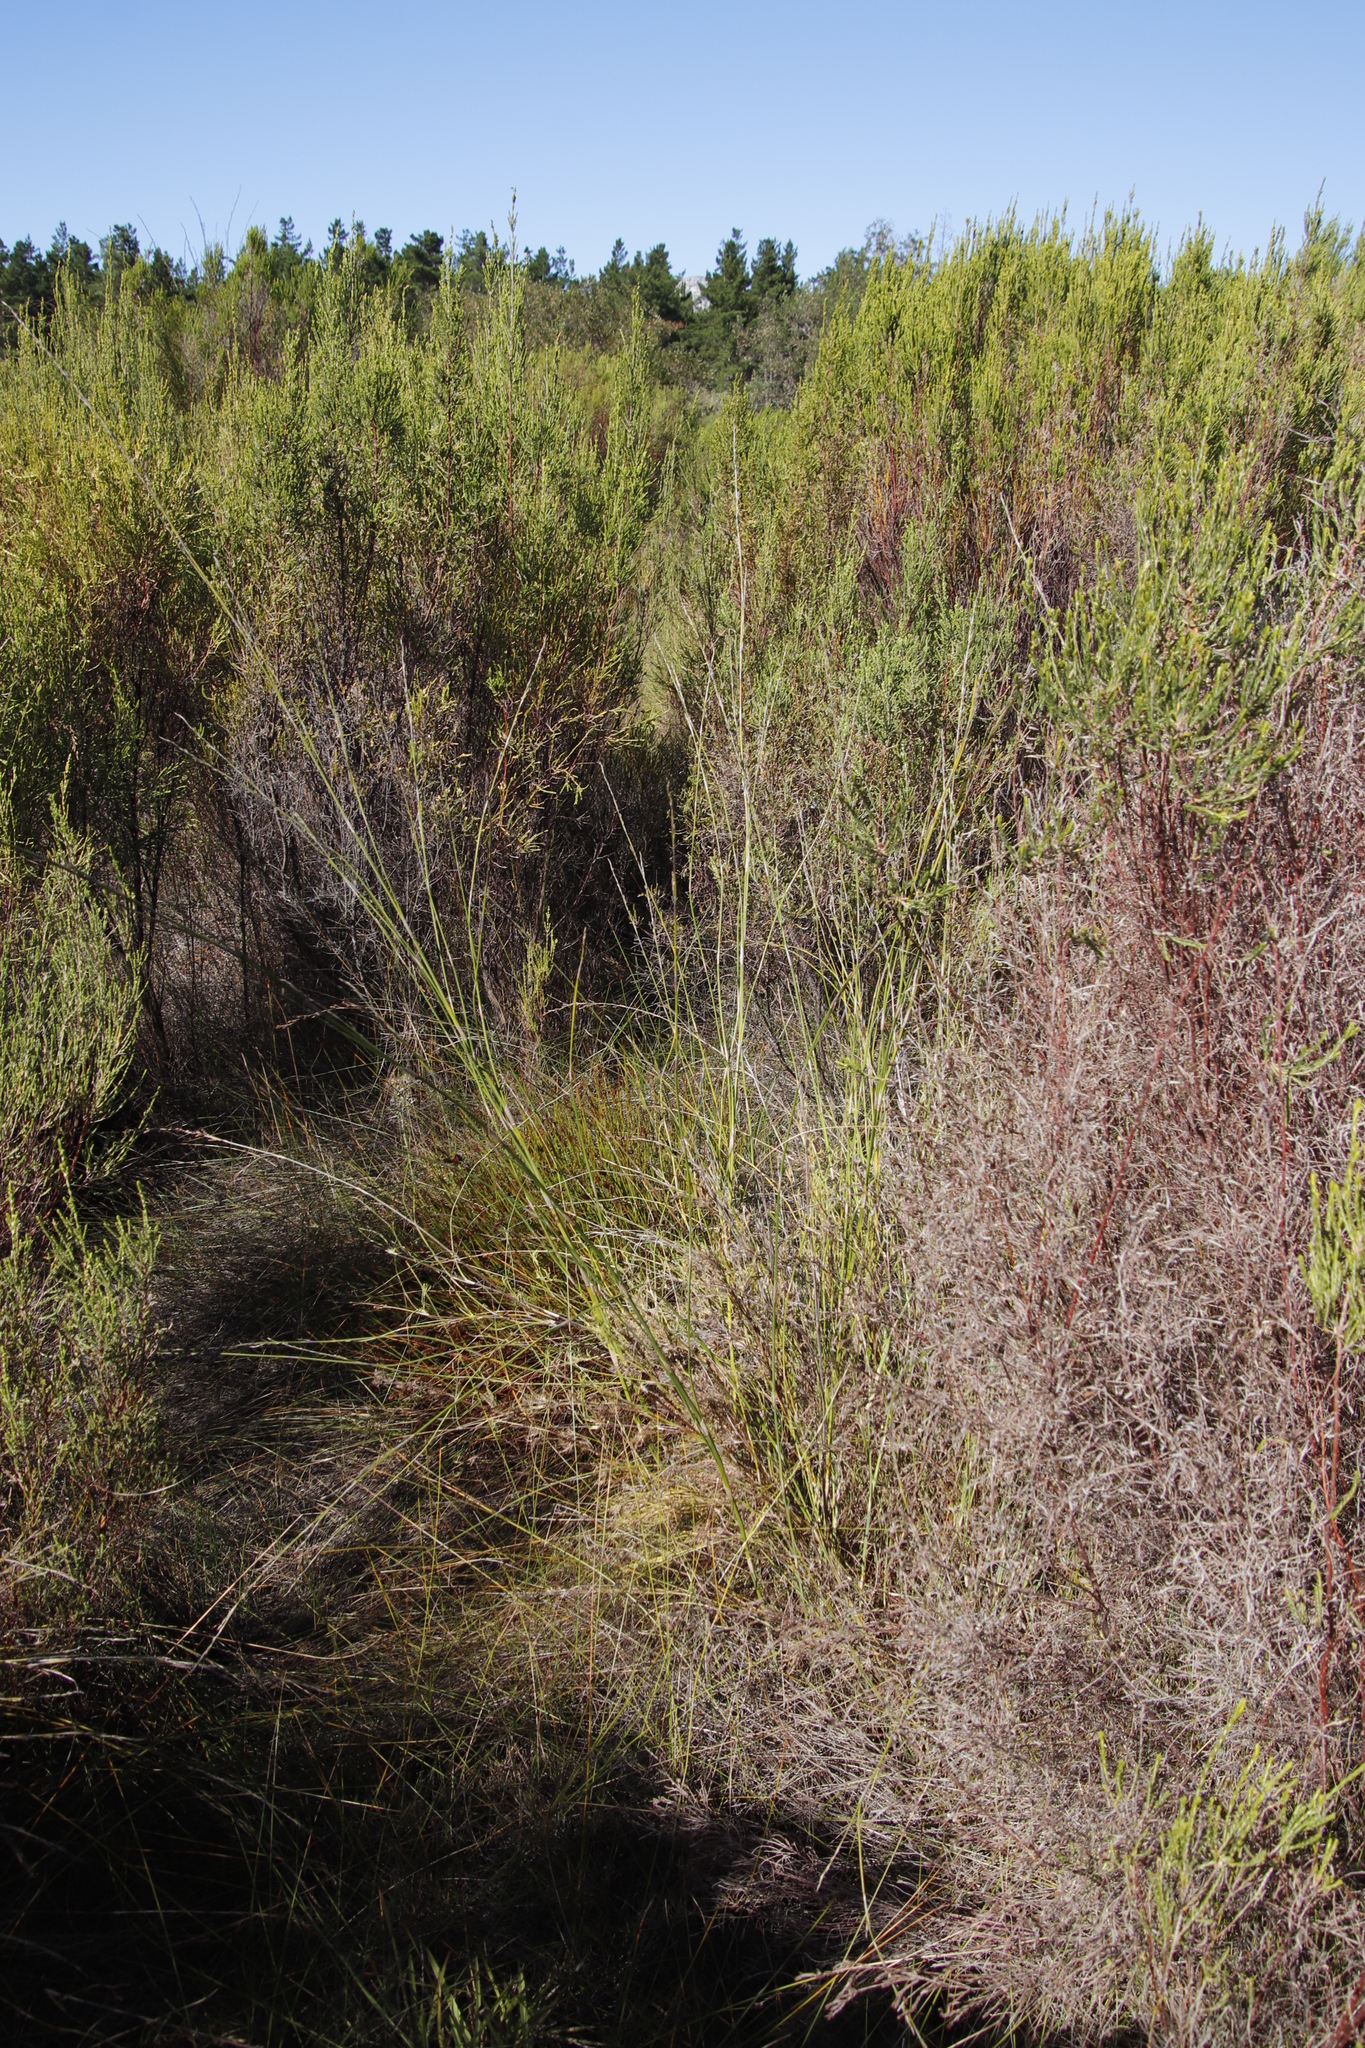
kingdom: Plantae
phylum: Tracheophyta
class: Liliopsida
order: Poales
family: Restionaceae
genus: Restio
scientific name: Restio tetragonus
